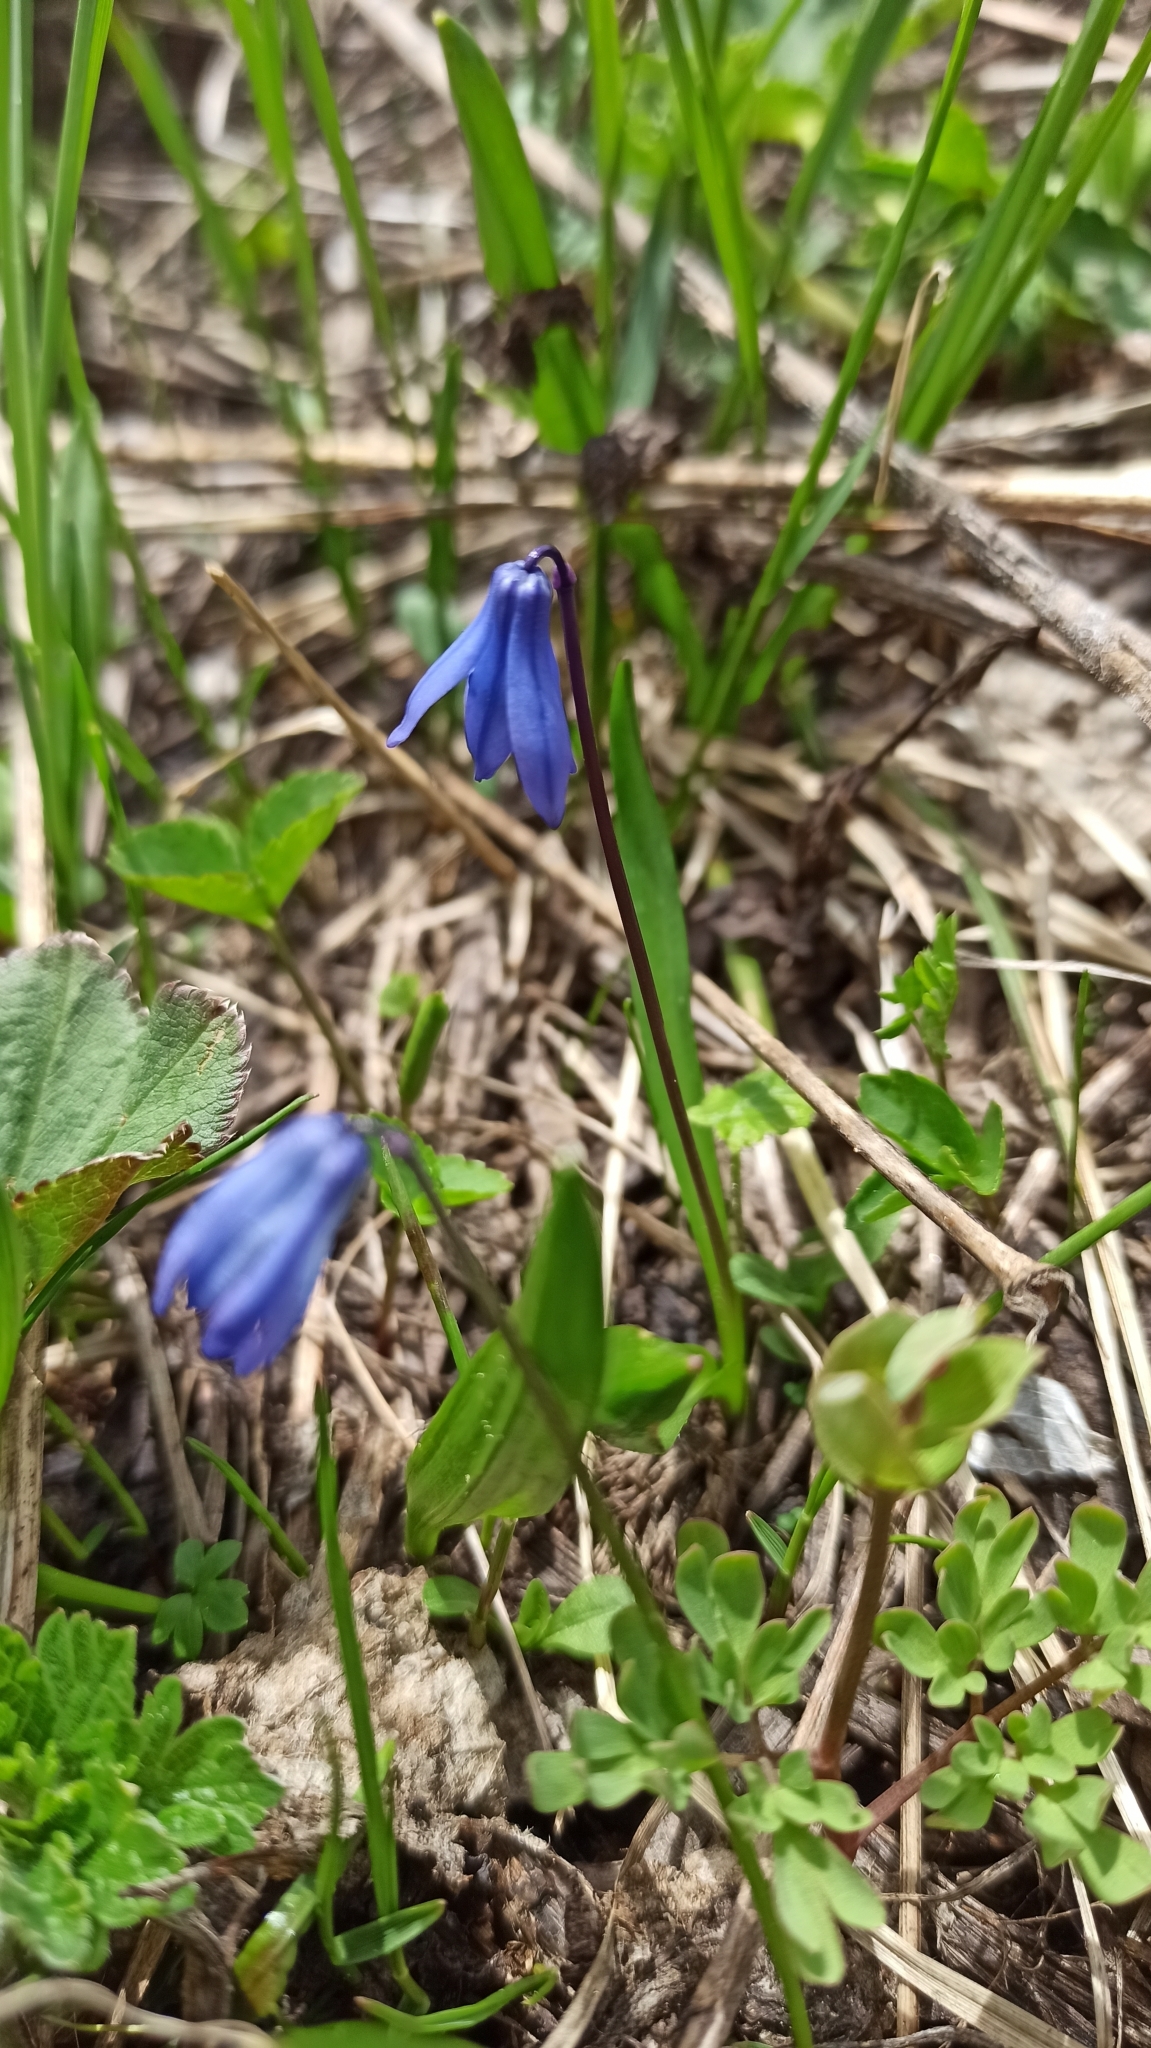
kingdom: Plantae
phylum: Tracheophyta
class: Liliopsida
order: Asparagales
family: Asparagaceae
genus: Scilla
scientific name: Scilla siberica
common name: Siberian squill
